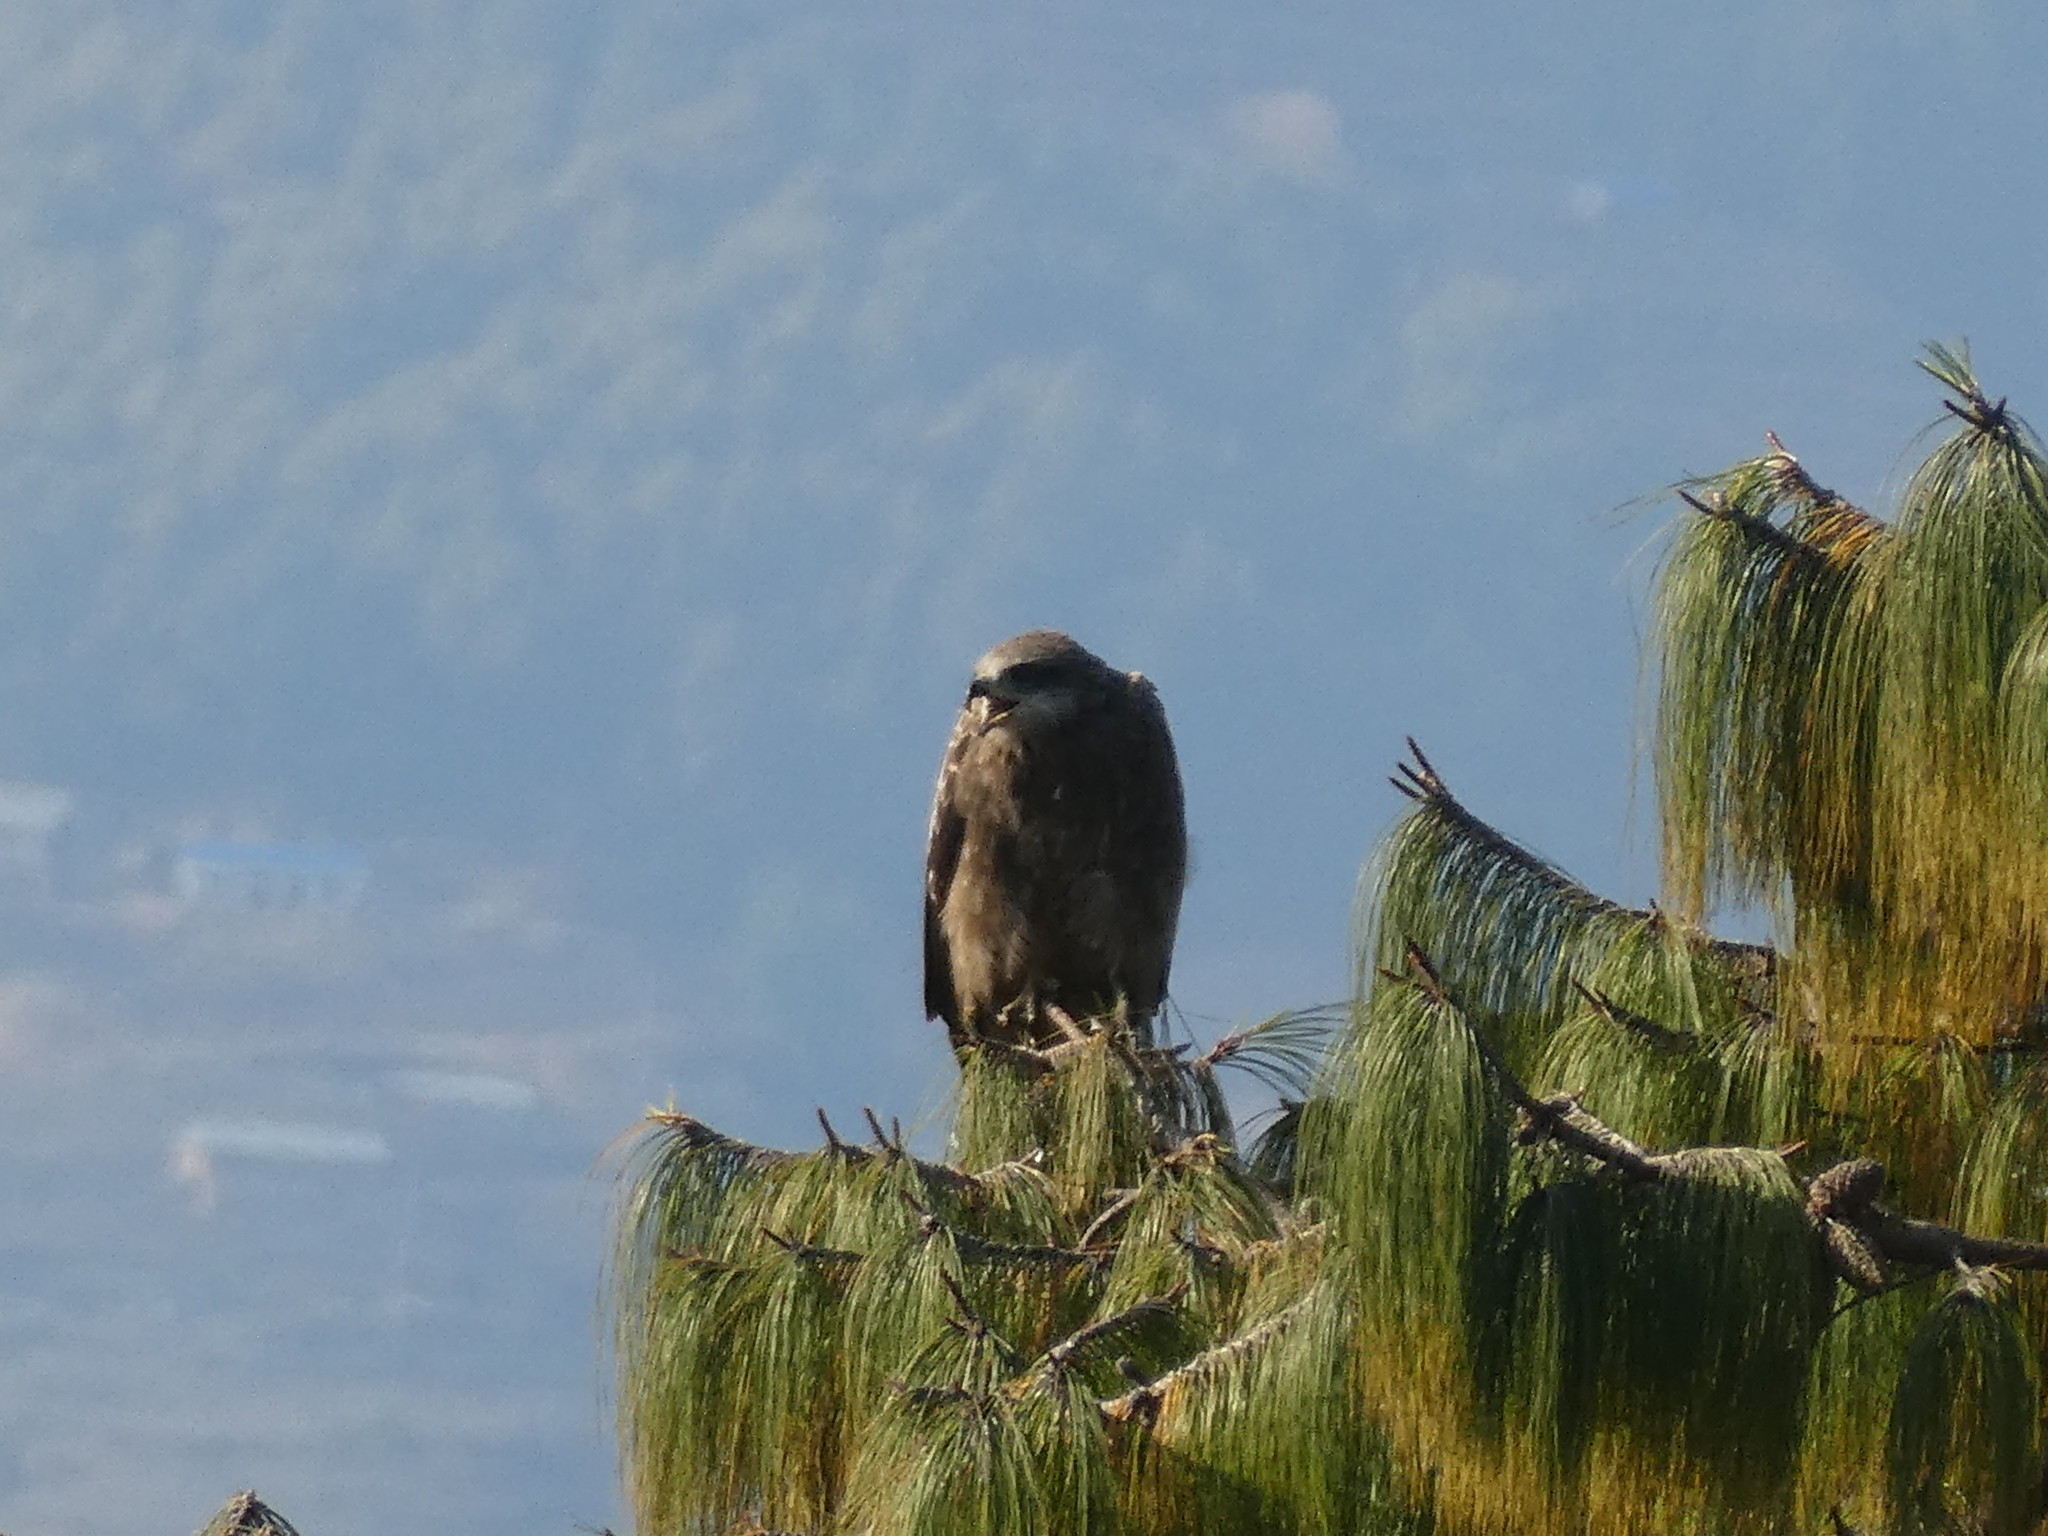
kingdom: Animalia
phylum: Chordata
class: Aves
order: Accipitriformes
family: Accipitridae
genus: Milvus
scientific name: Milvus migrans
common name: Black kite
